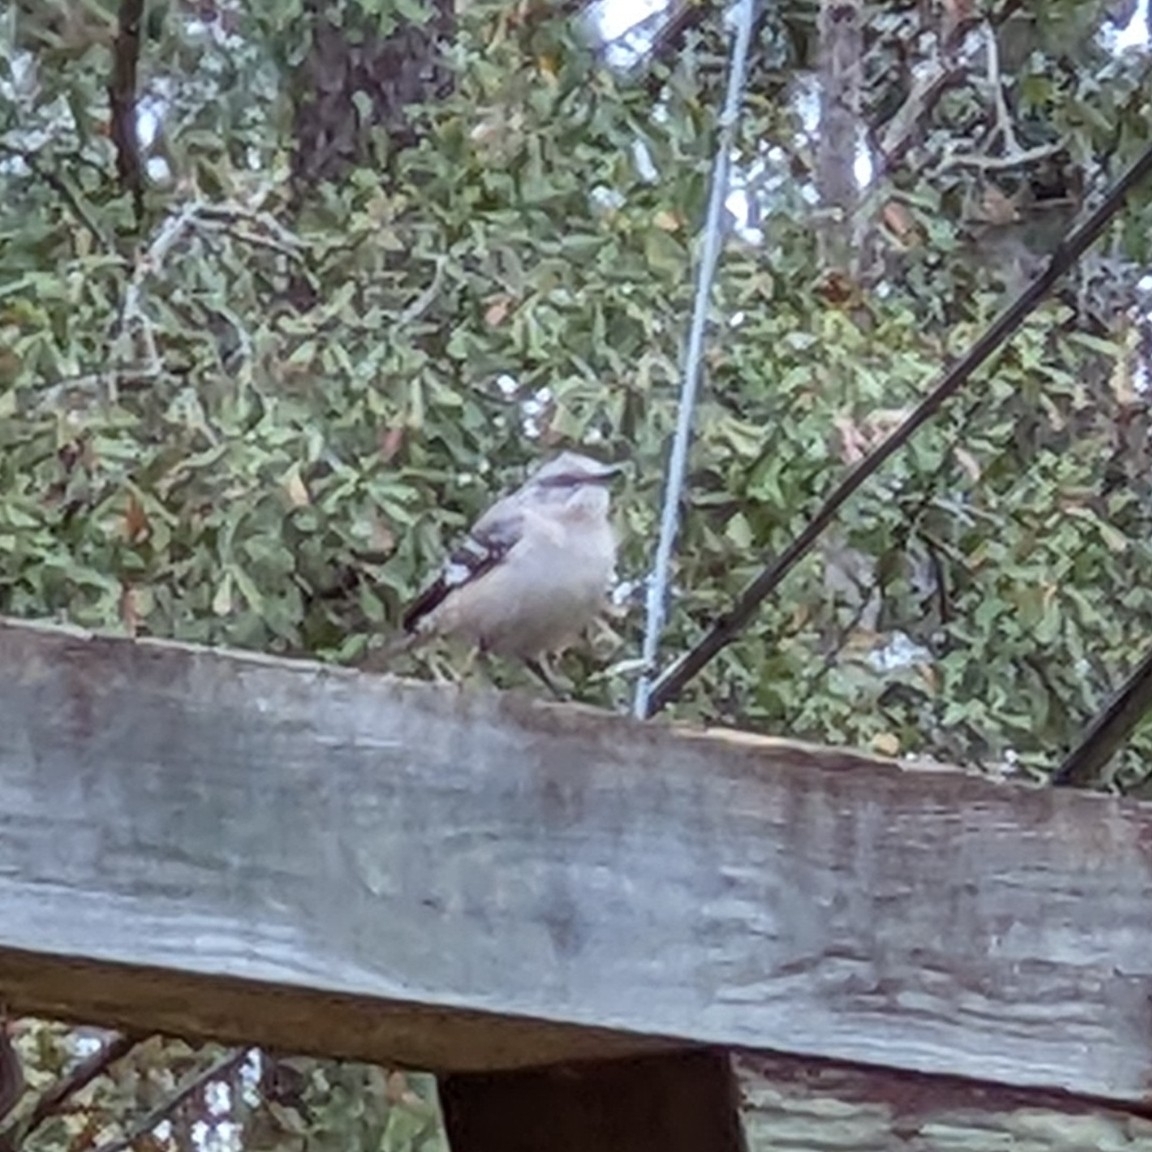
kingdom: Animalia
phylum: Chordata
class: Aves
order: Passeriformes
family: Mimidae
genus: Mimus
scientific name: Mimus polyglottos
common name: Northern mockingbird
